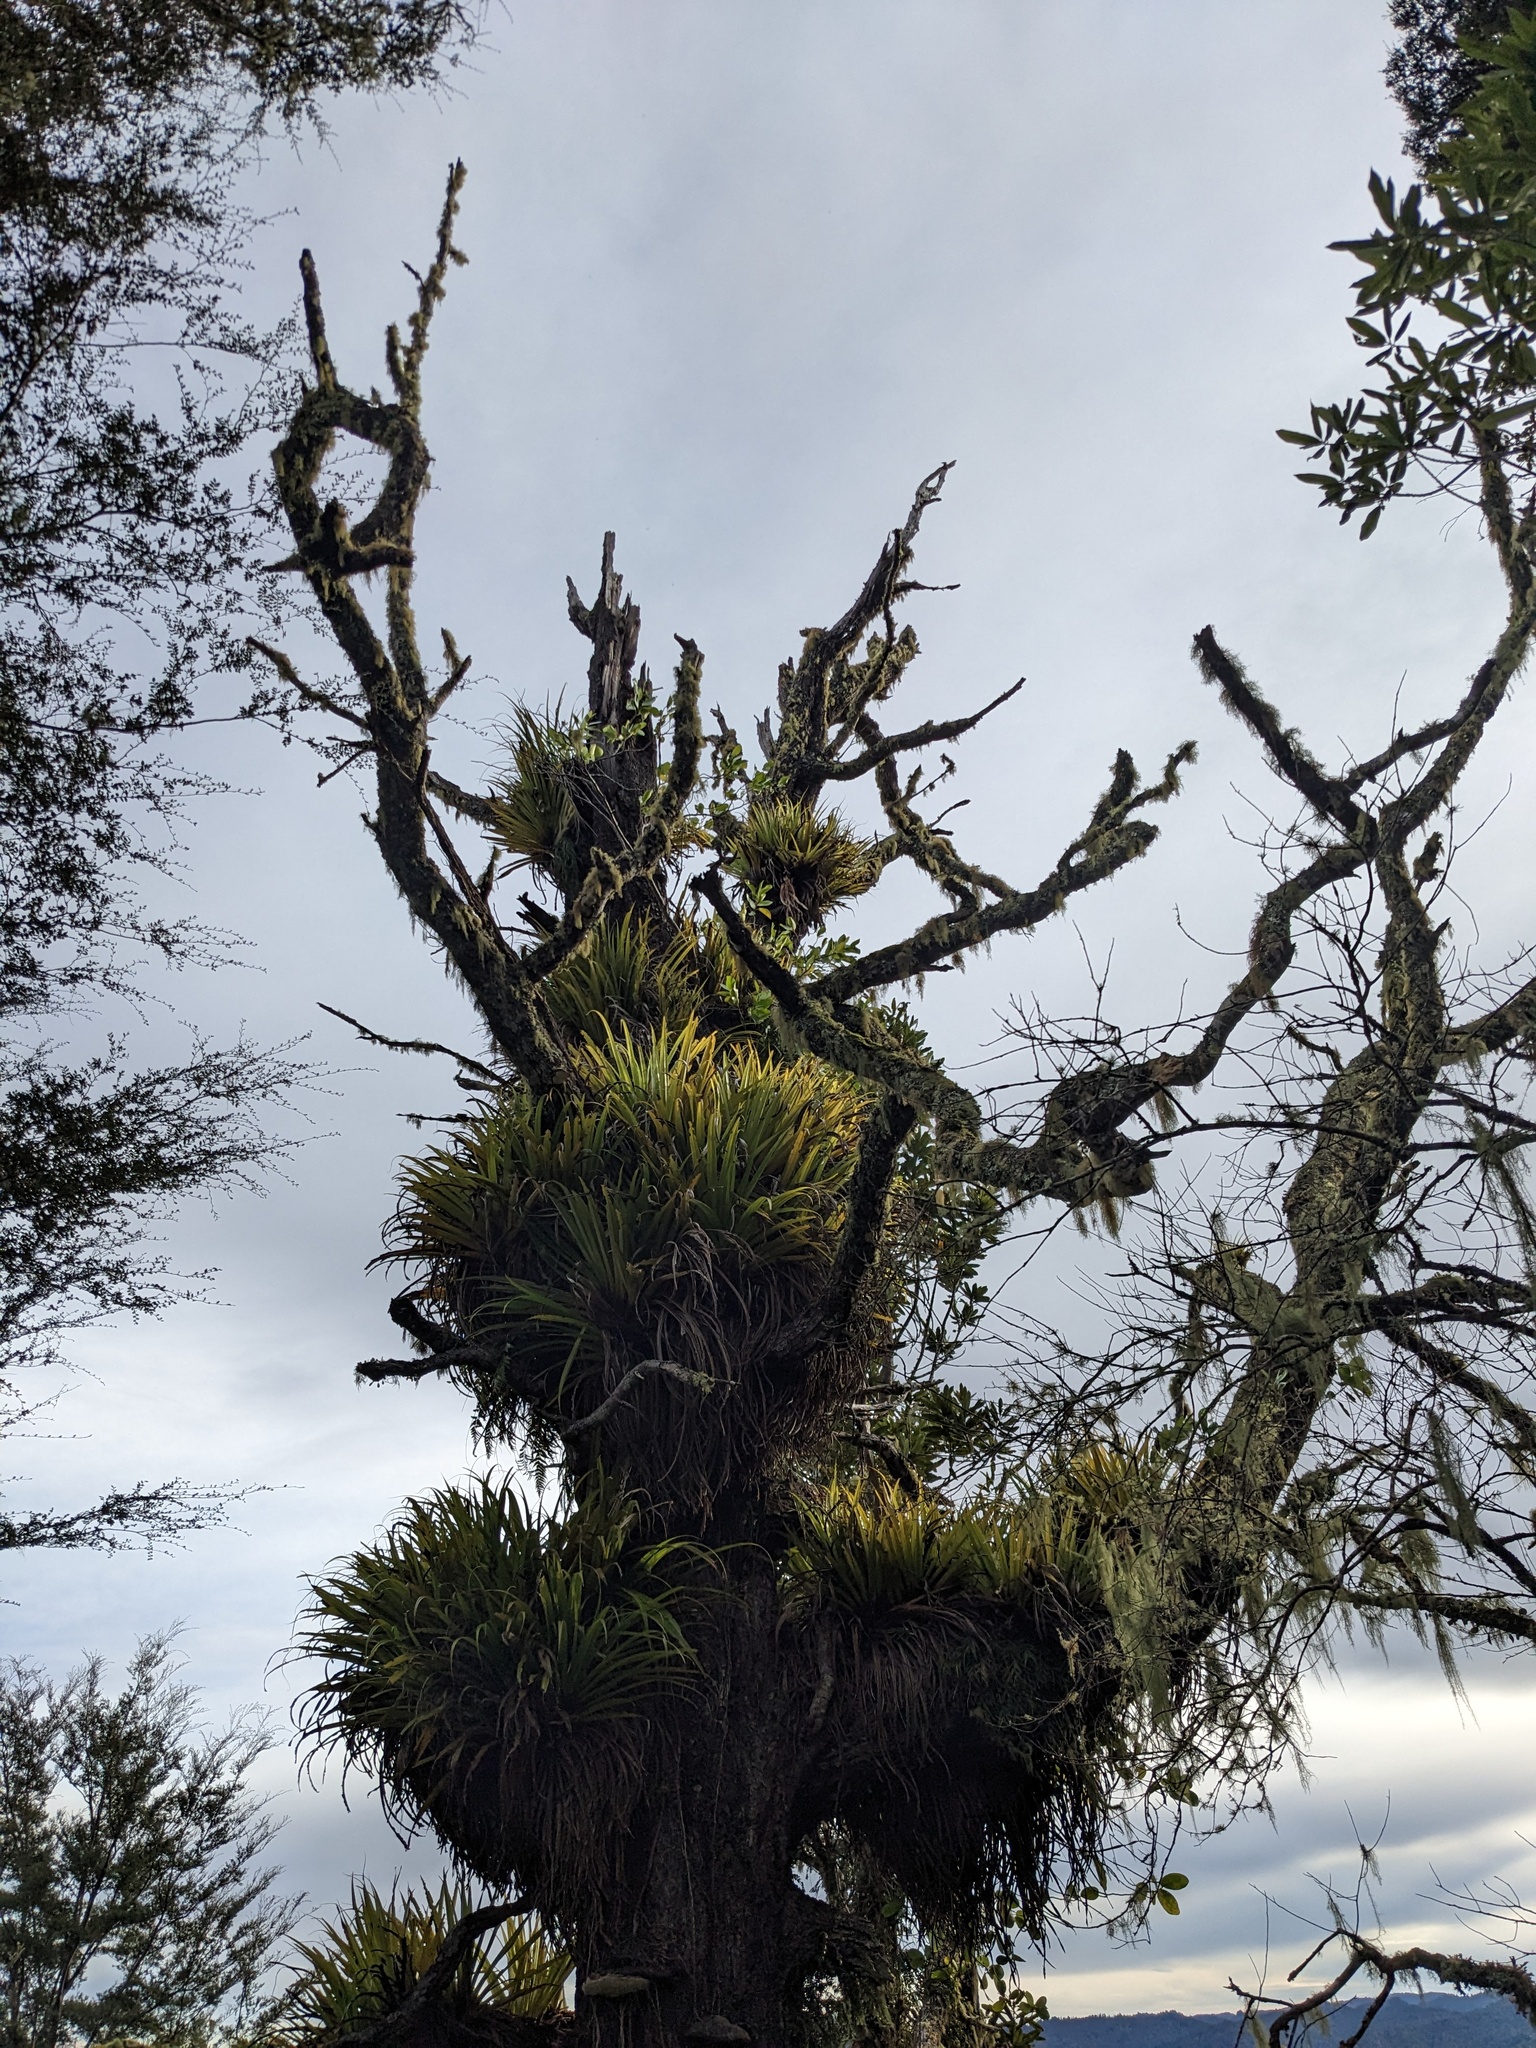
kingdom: Plantae
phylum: Tracheophyta
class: Liliopsida
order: Asparagales
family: Asteliaceae
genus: Astelia
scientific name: Astelia hastata
